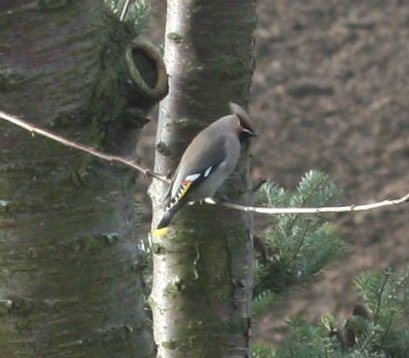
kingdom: Animalia
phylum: Chordata
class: Aves
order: Passeriformes
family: Bombycillidae
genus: Bombycilla
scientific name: Bombycilla garrulus
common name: Bohemian waxwing
